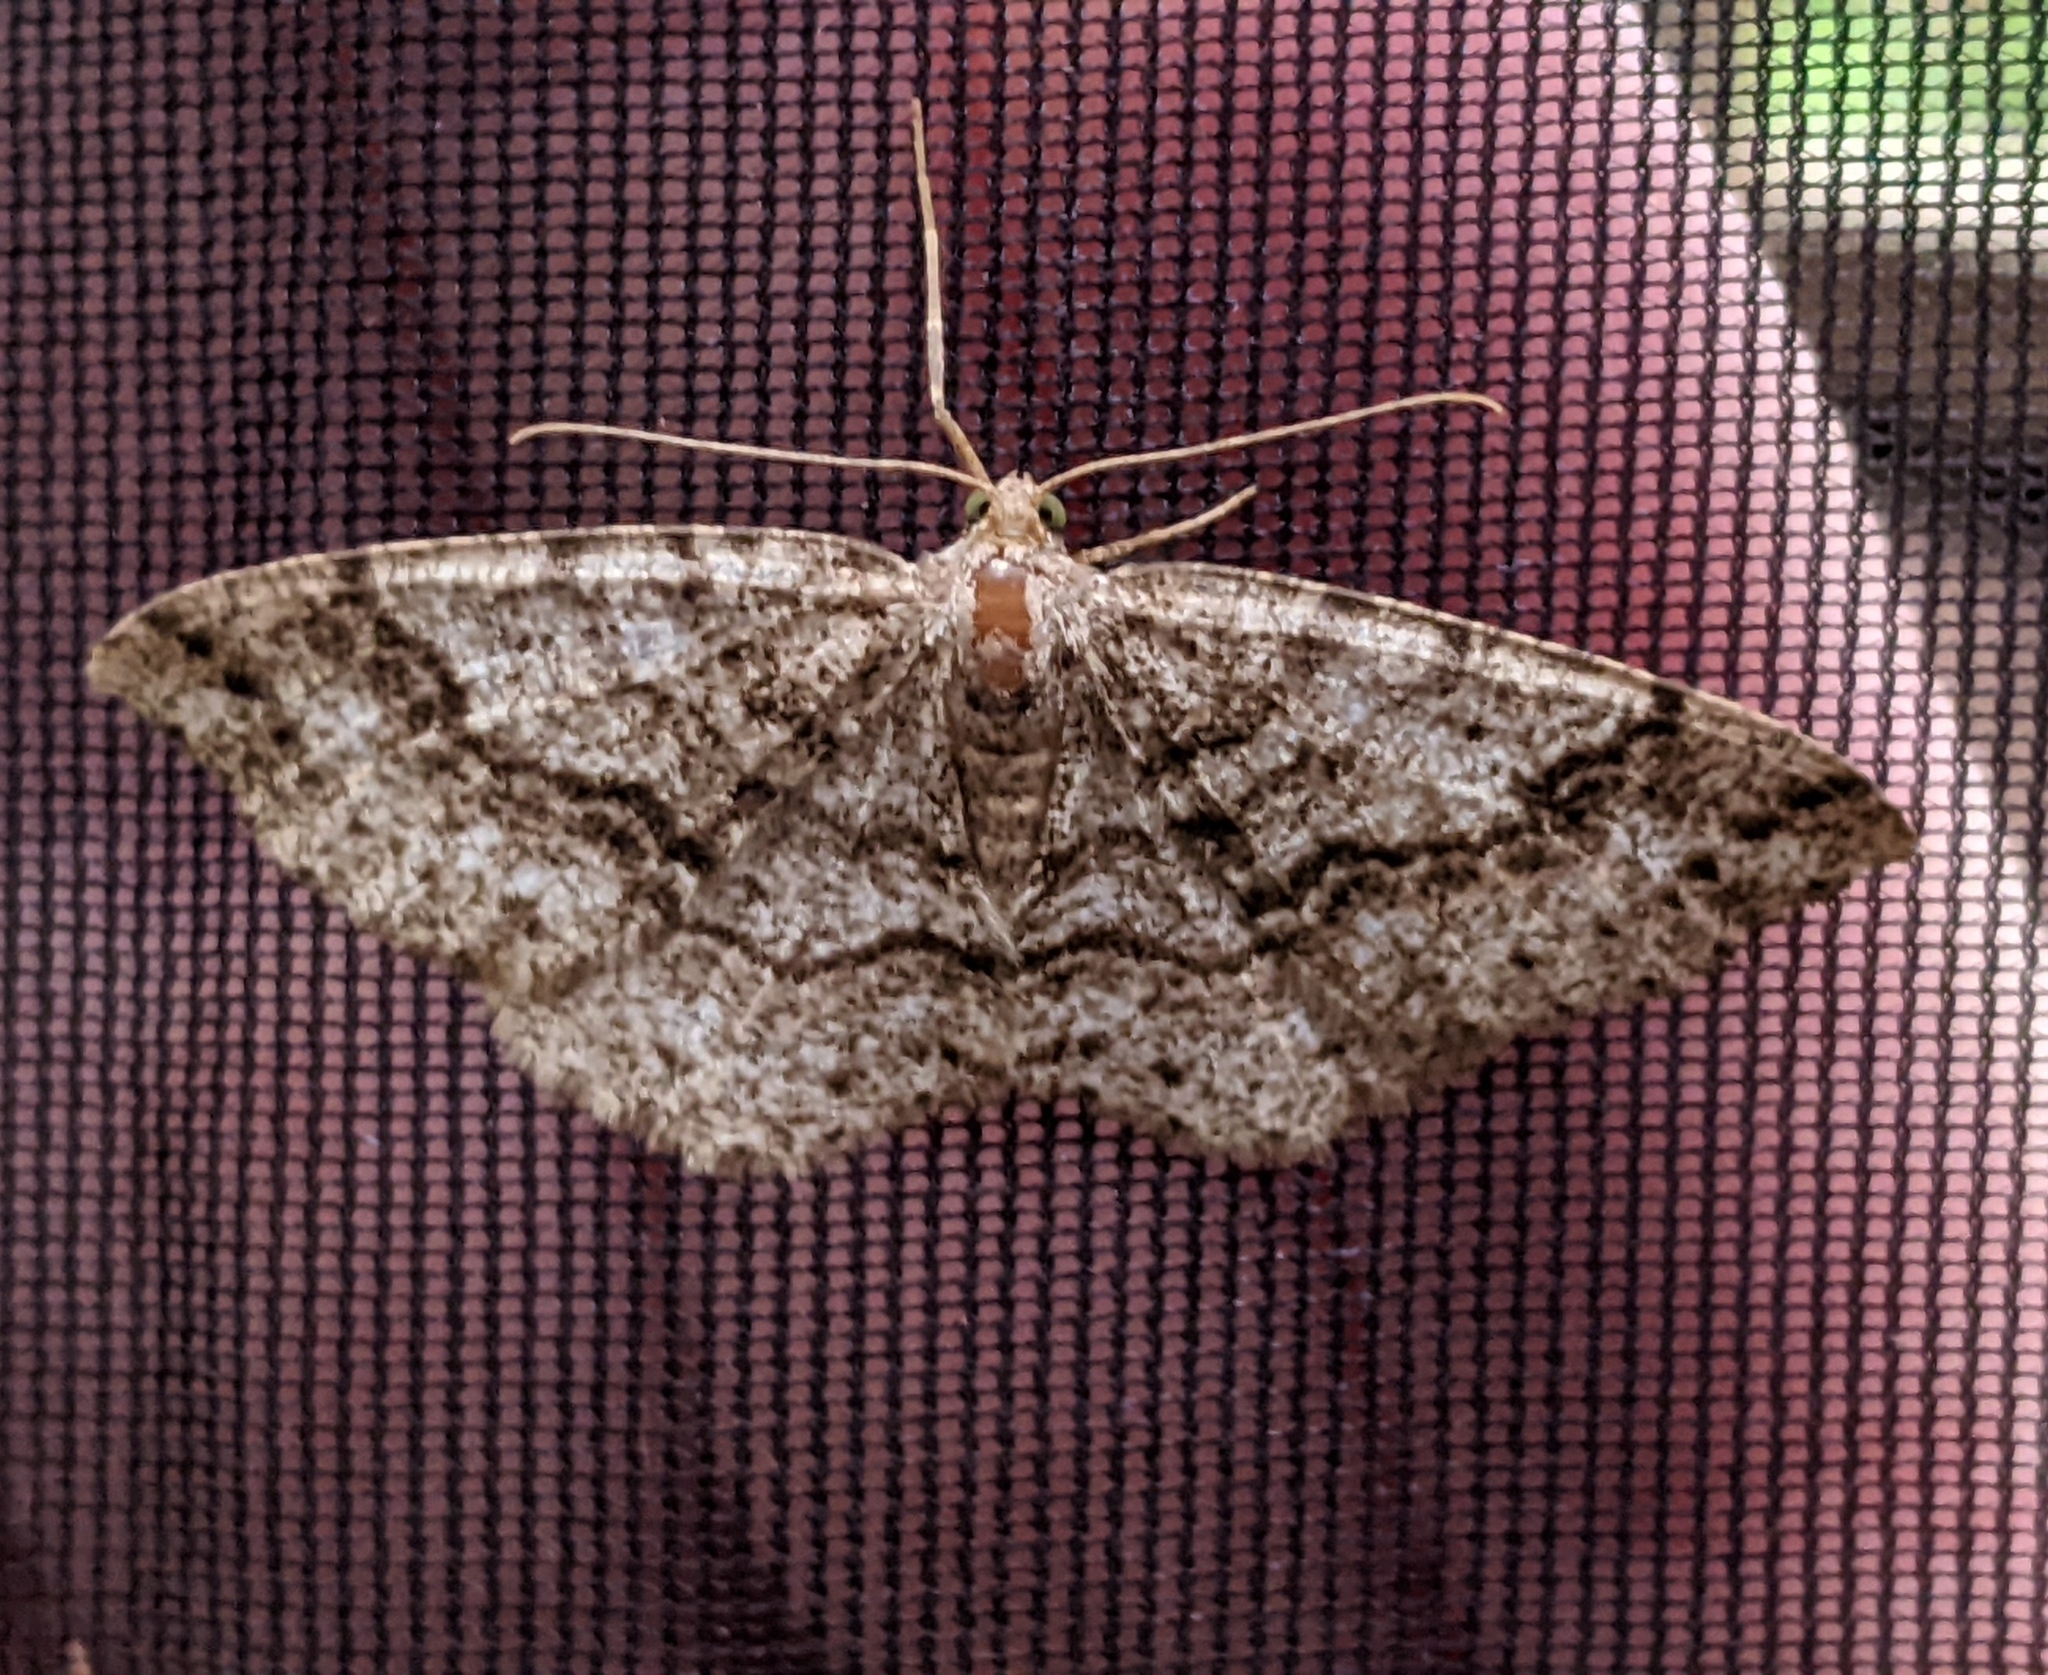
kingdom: Animalia
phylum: Arthropoda
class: Insecta
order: Lepidoptera
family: Geometridae
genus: Melanolophia
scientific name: Melanolophia imitata
